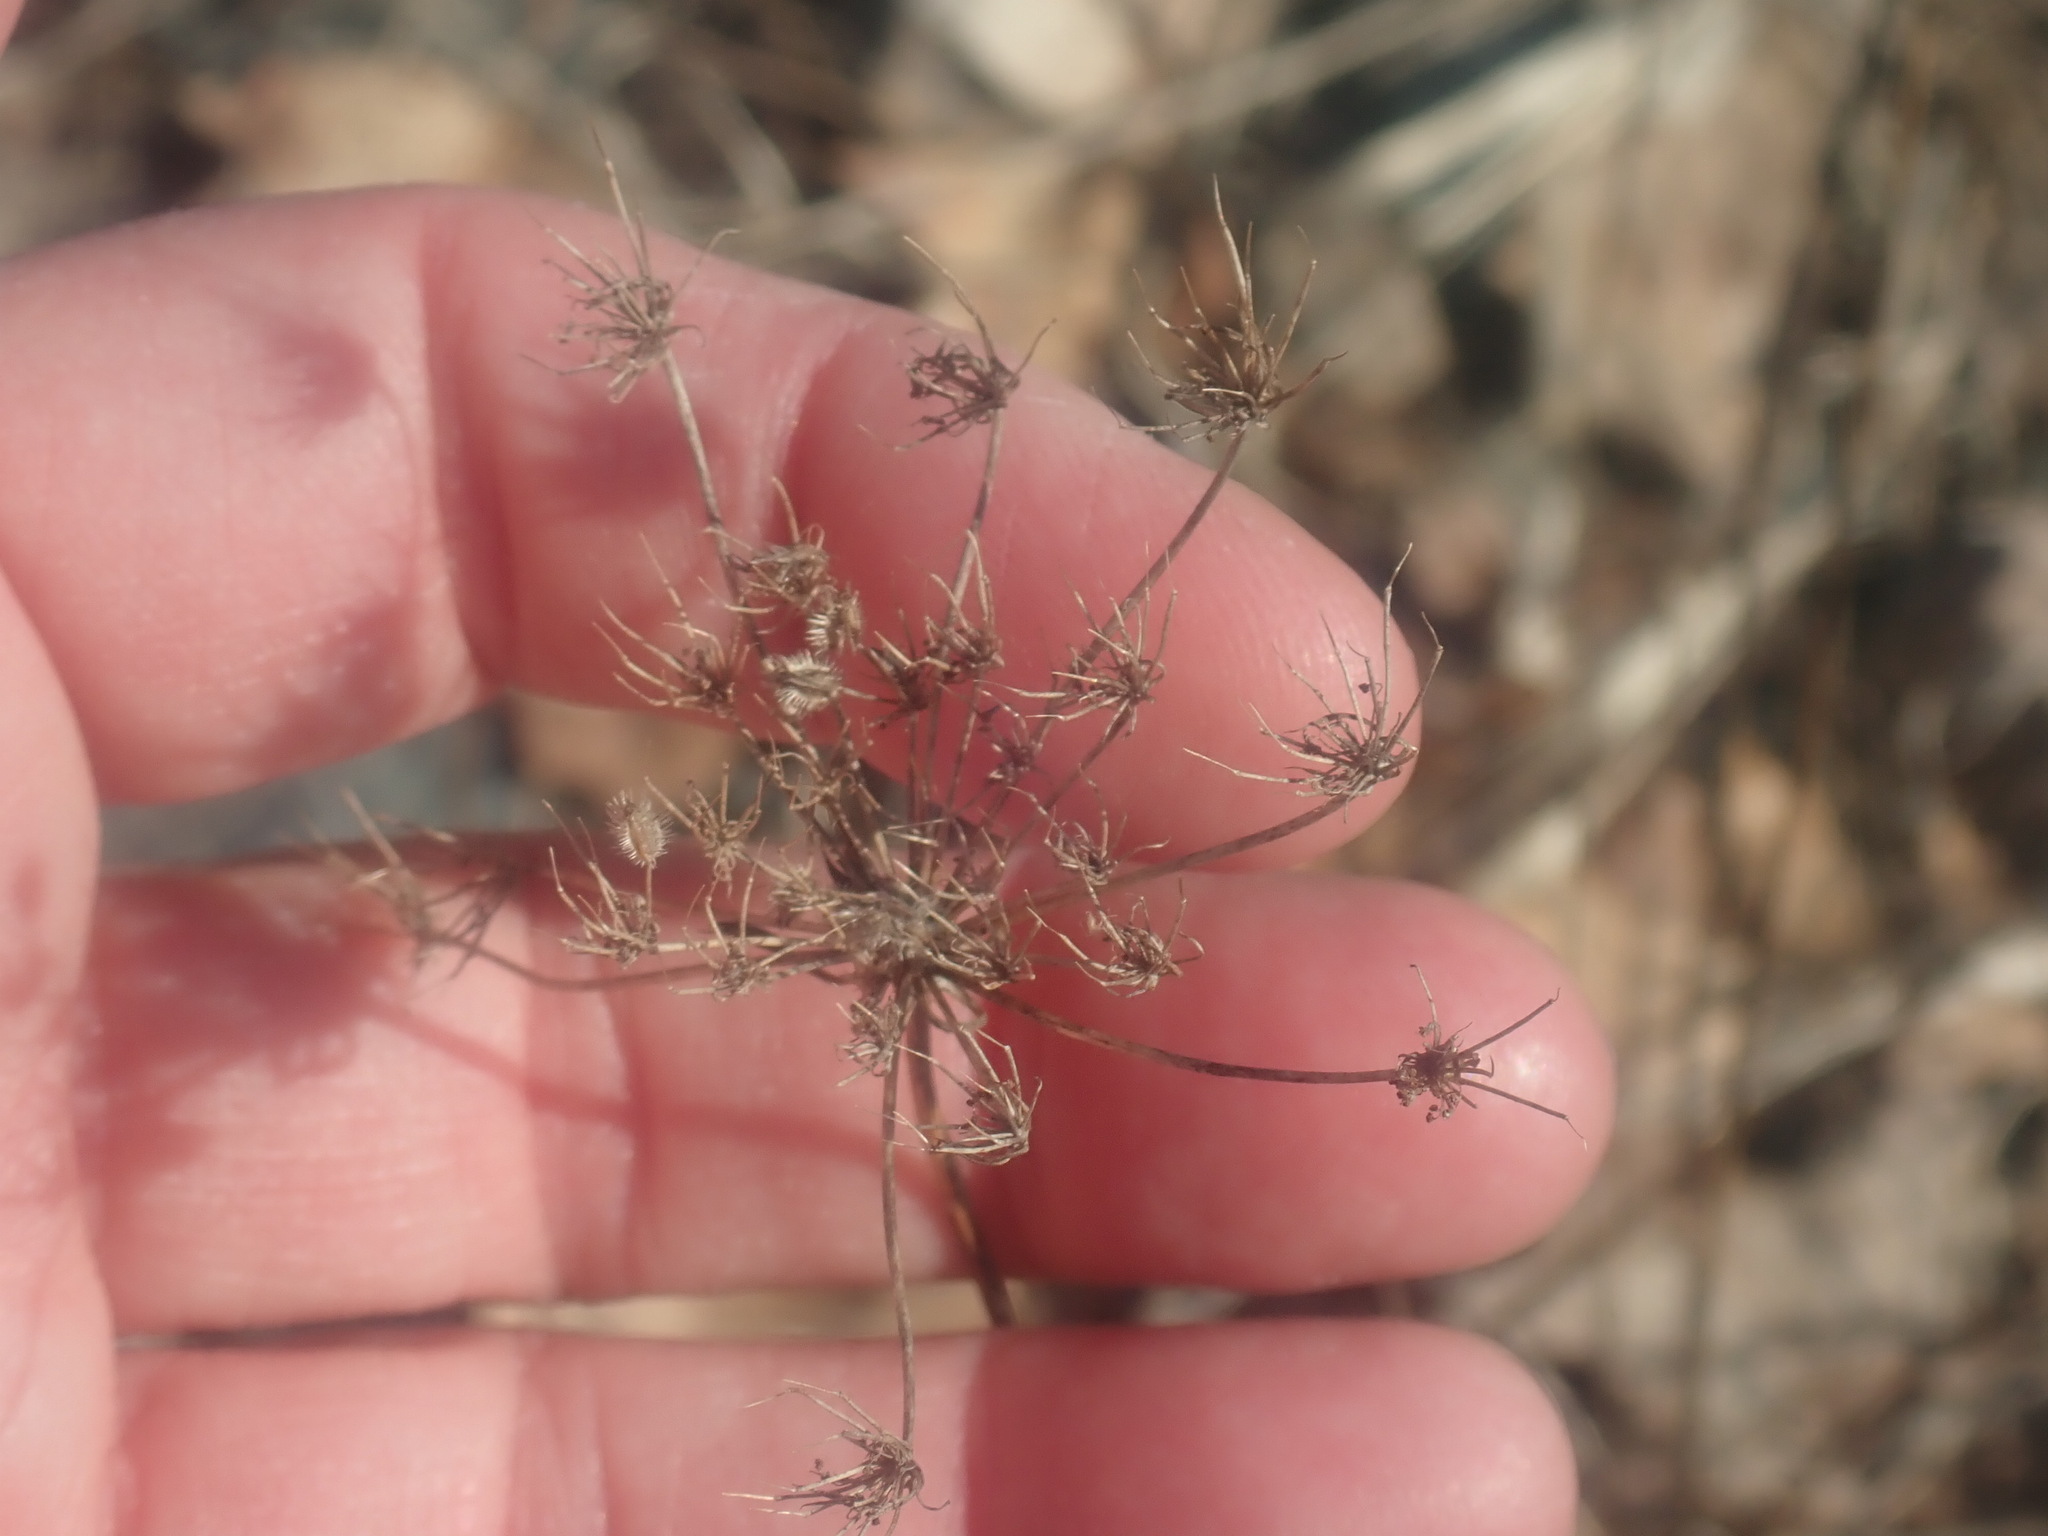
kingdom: Plantae
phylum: Tracheophyta
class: Magnoliopsida
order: Apiales
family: Apiaceae
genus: Daucus
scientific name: Daucus carota
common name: Wild carrot
